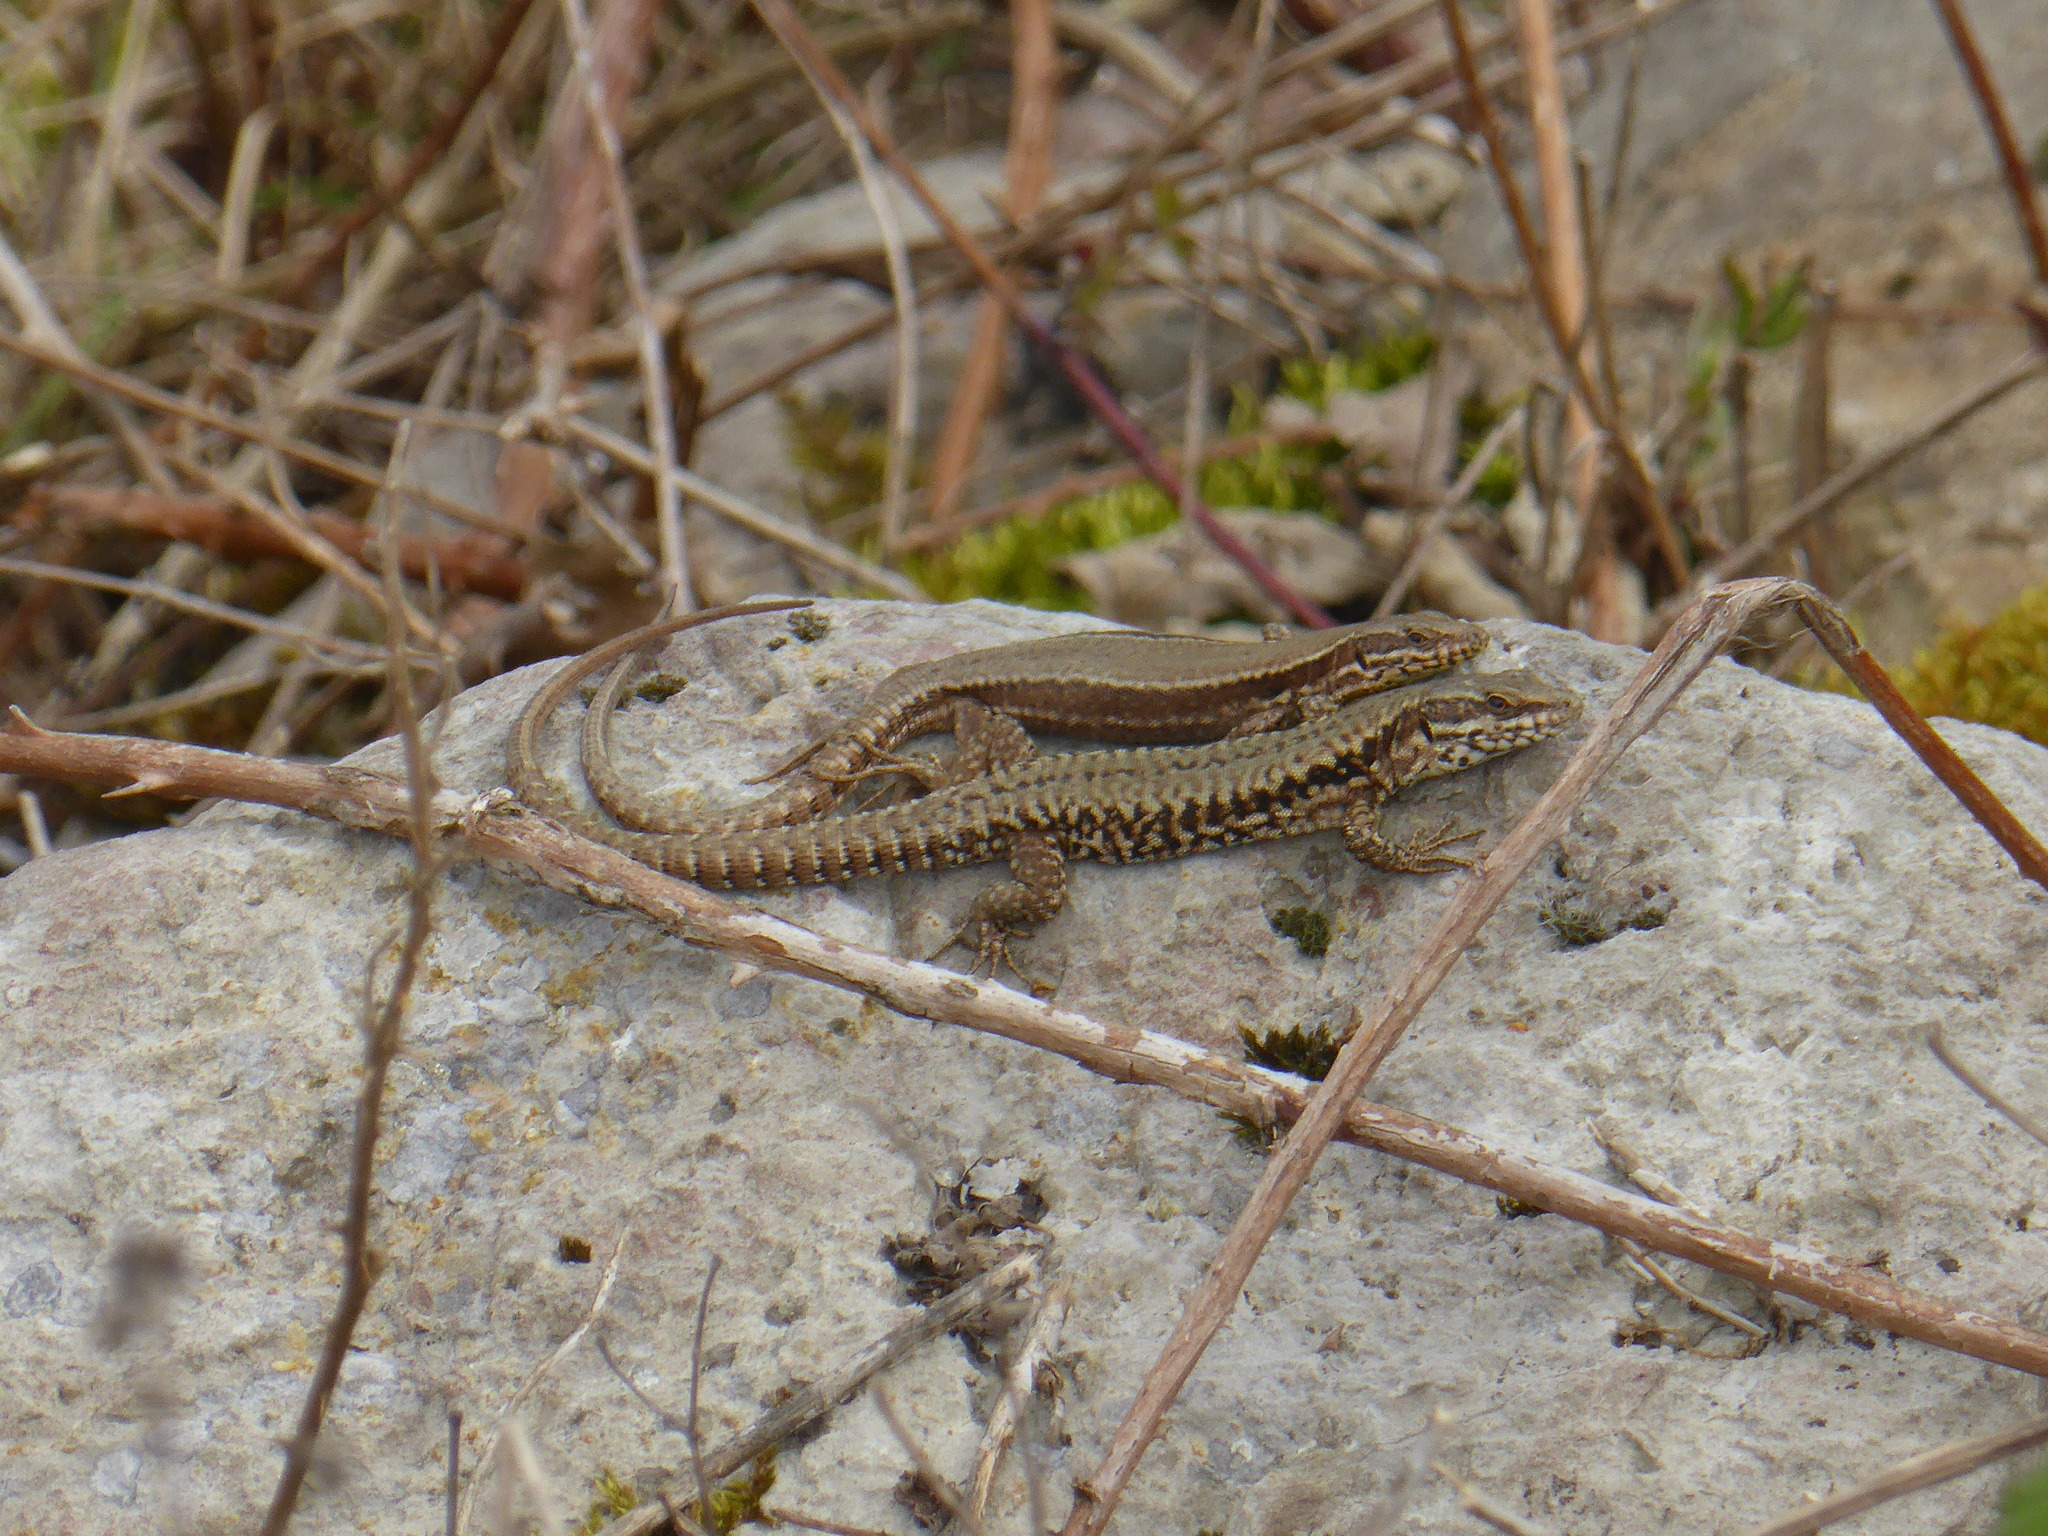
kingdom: Animalia
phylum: Chordata
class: Squamata
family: Lacertidae
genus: Podarcis
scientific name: Podarcis muralis
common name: Common wall lizard
